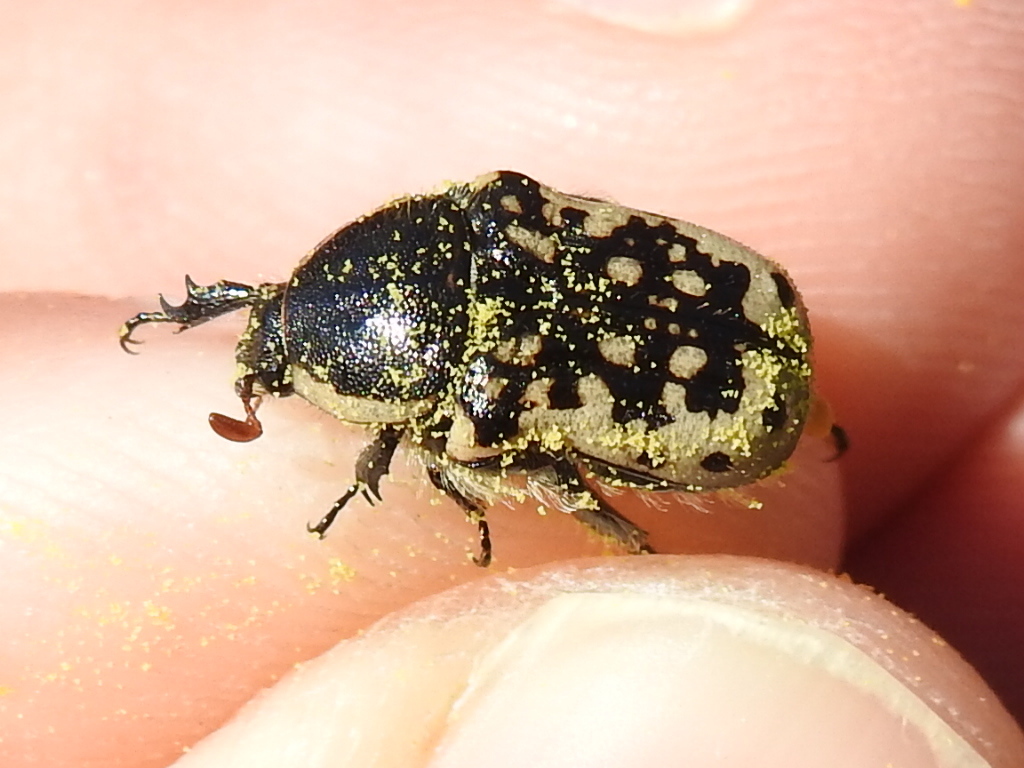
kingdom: Animalia
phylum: Arthropoda
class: Insecta
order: Coleoptera
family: Scarabaeidae
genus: Euphoria
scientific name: Euphoria kernii
